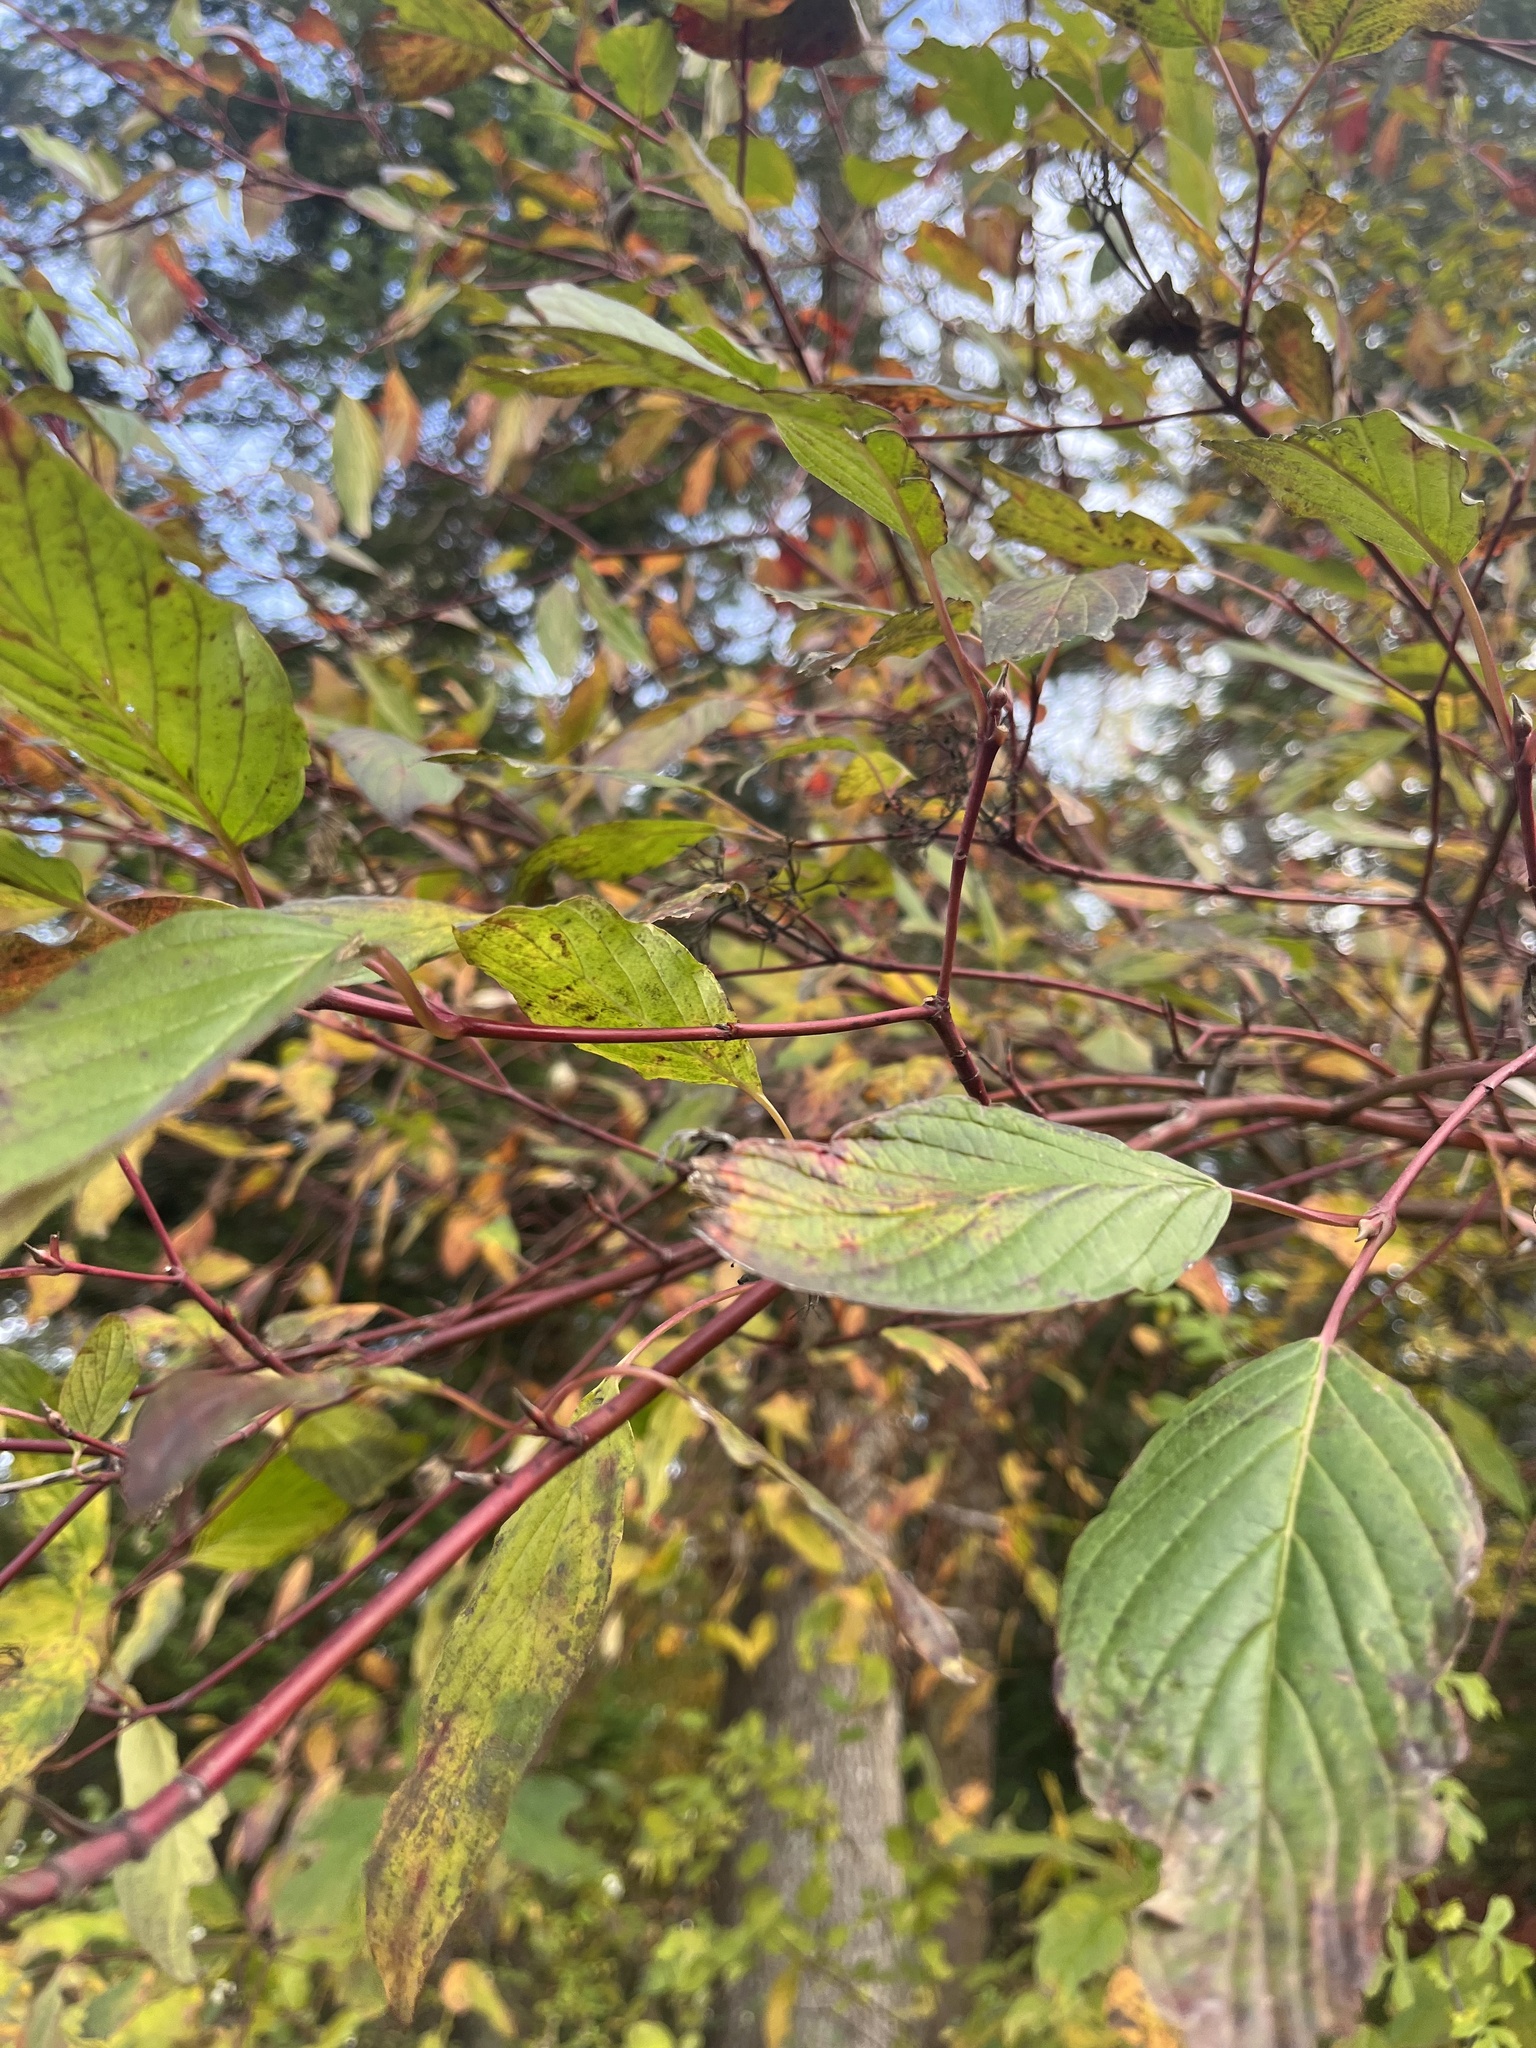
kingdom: Plantae
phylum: Tracheophyta
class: Magnoliopsida
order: Cornales
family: Cornaceae
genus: Cornus
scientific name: Cornus sericea
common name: Red-osier dogwood
